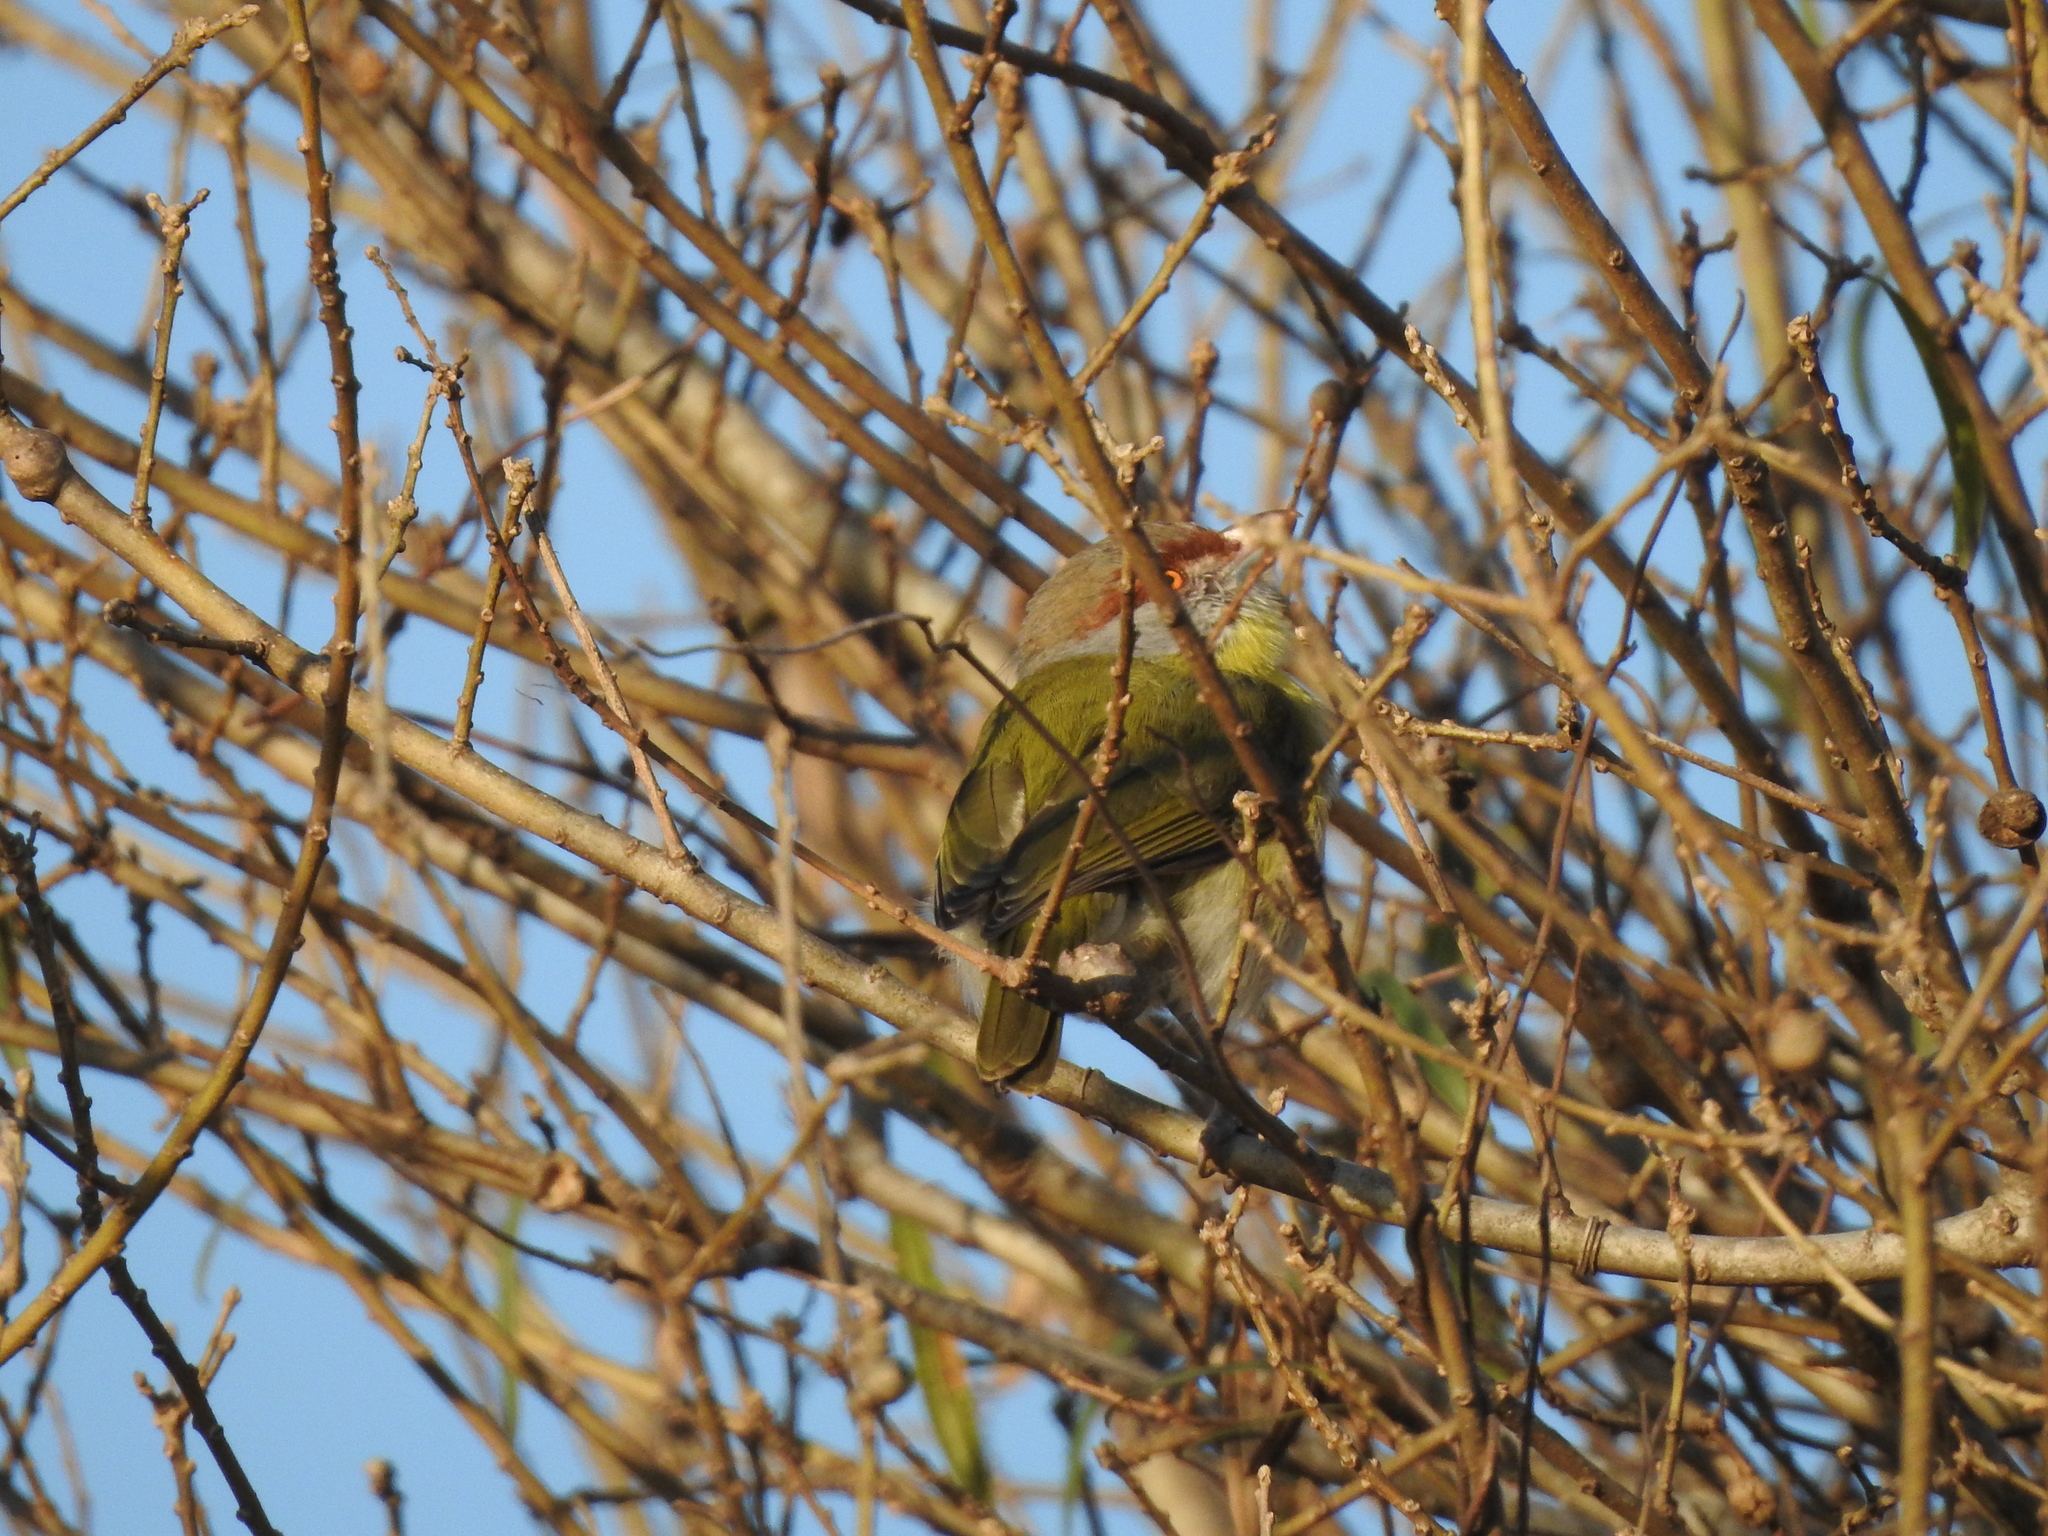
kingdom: Animalia
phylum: Chordata
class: Aves
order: Passeriformes
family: Vireonidae
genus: Cyclarhis
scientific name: Cyclarhis gujanensis
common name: Rufous-browed peppershrike
